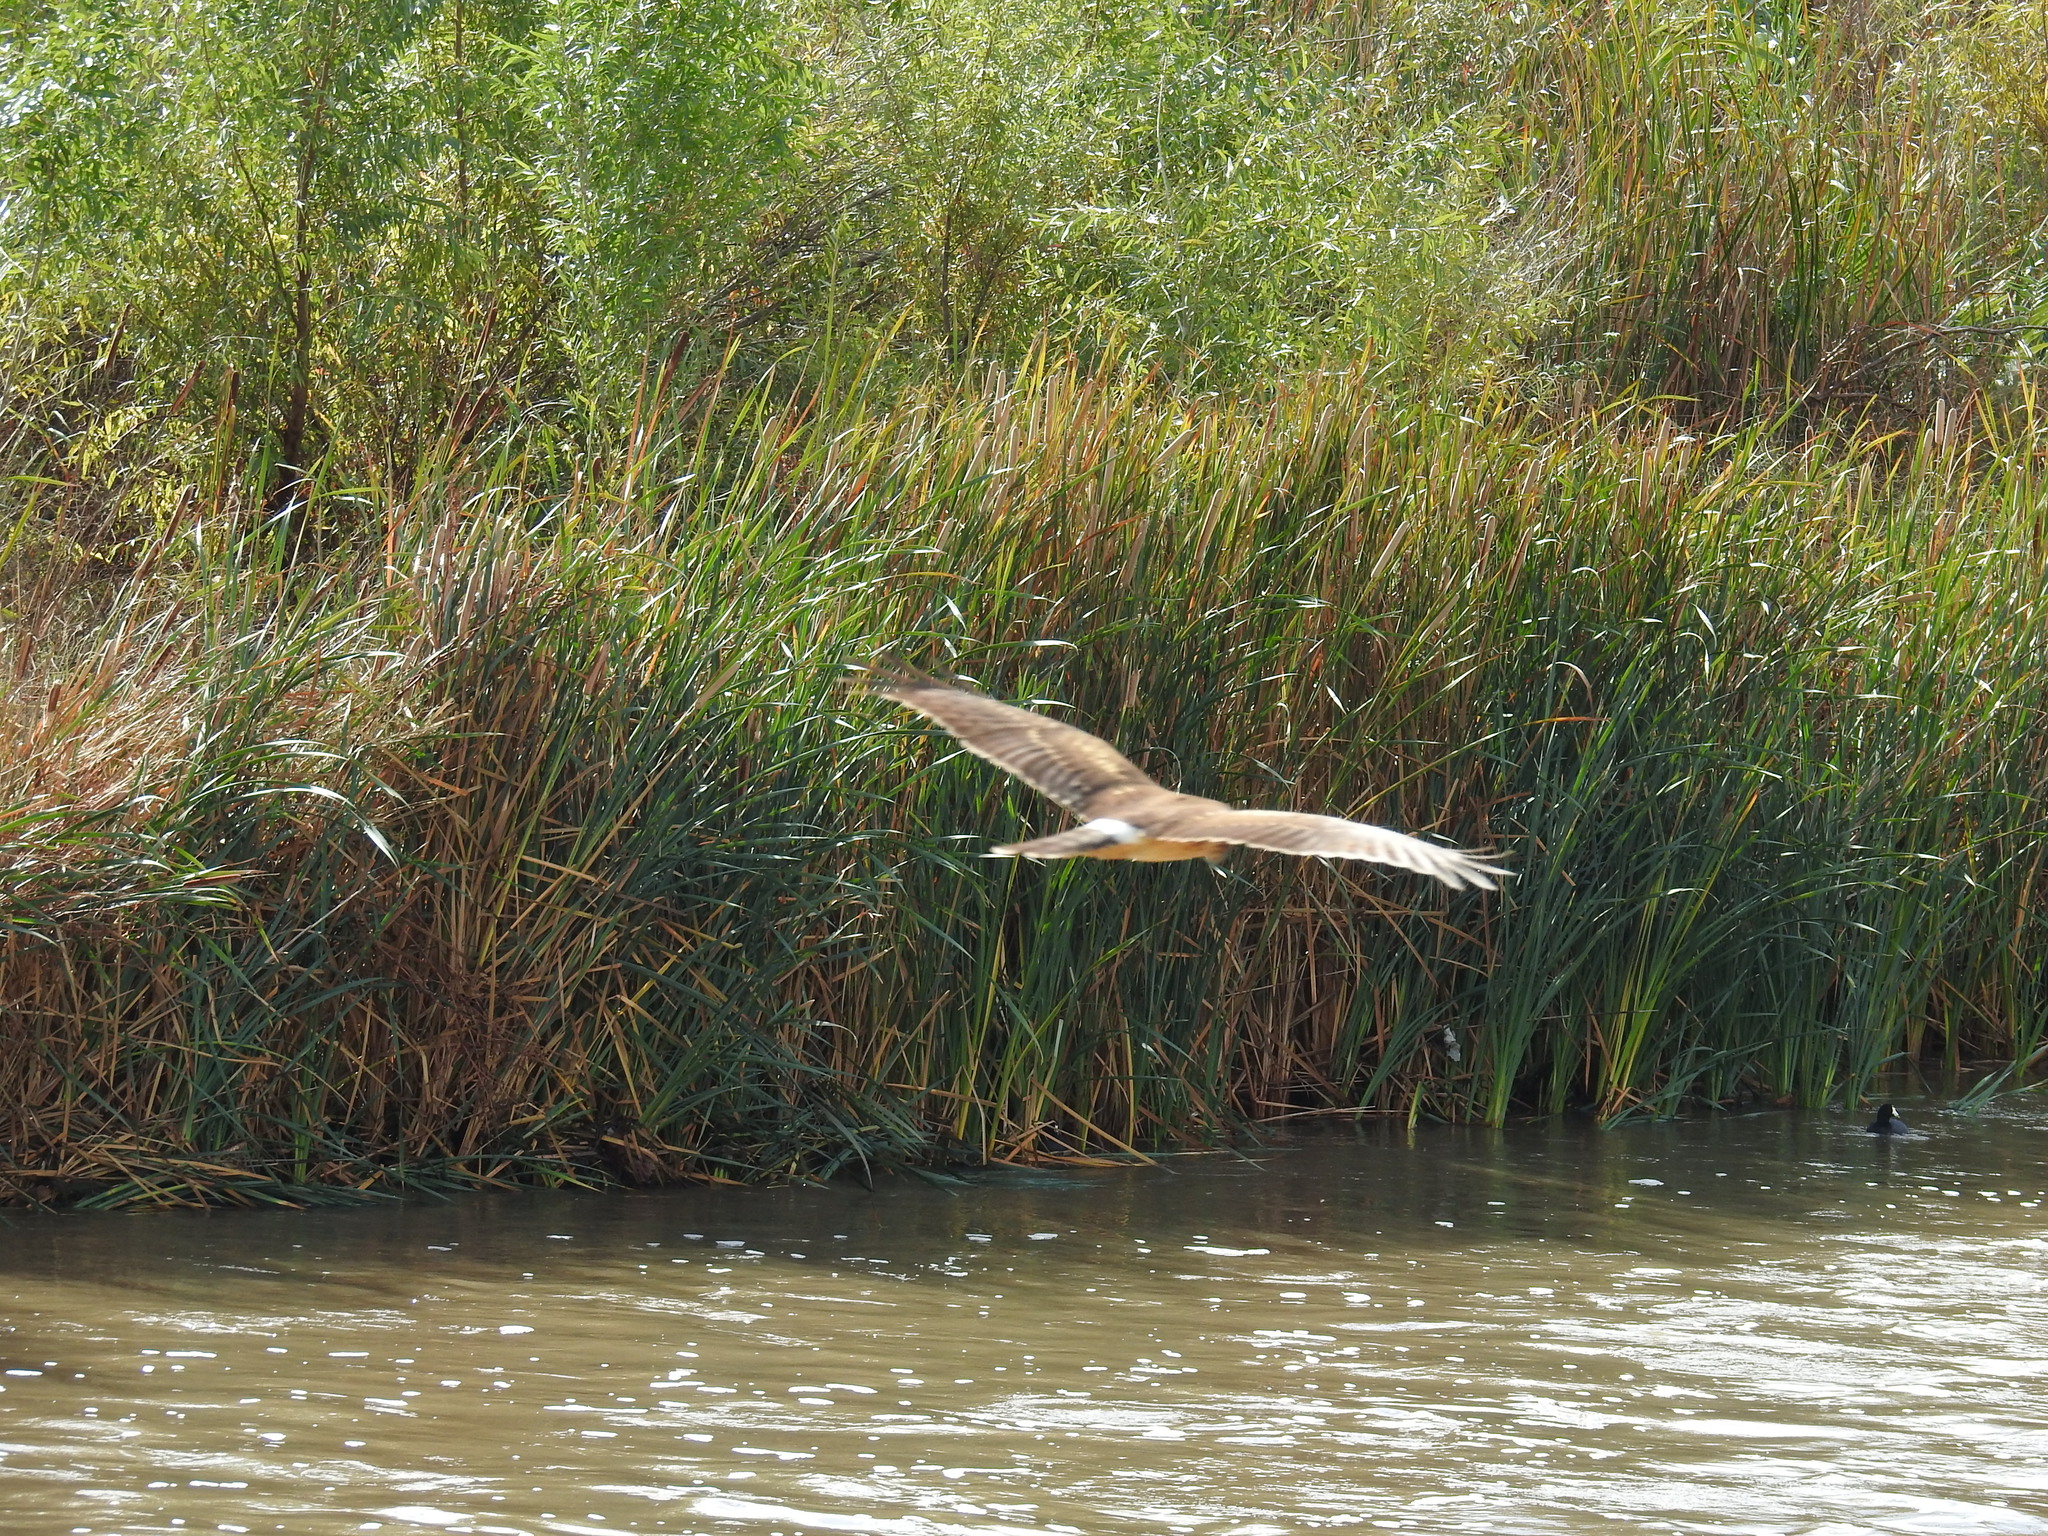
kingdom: Animalia
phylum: Chordata
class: Aves
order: Accipitriformes
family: Accipitridae
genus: Circus
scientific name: Circus cyaneus
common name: Hen harrier
